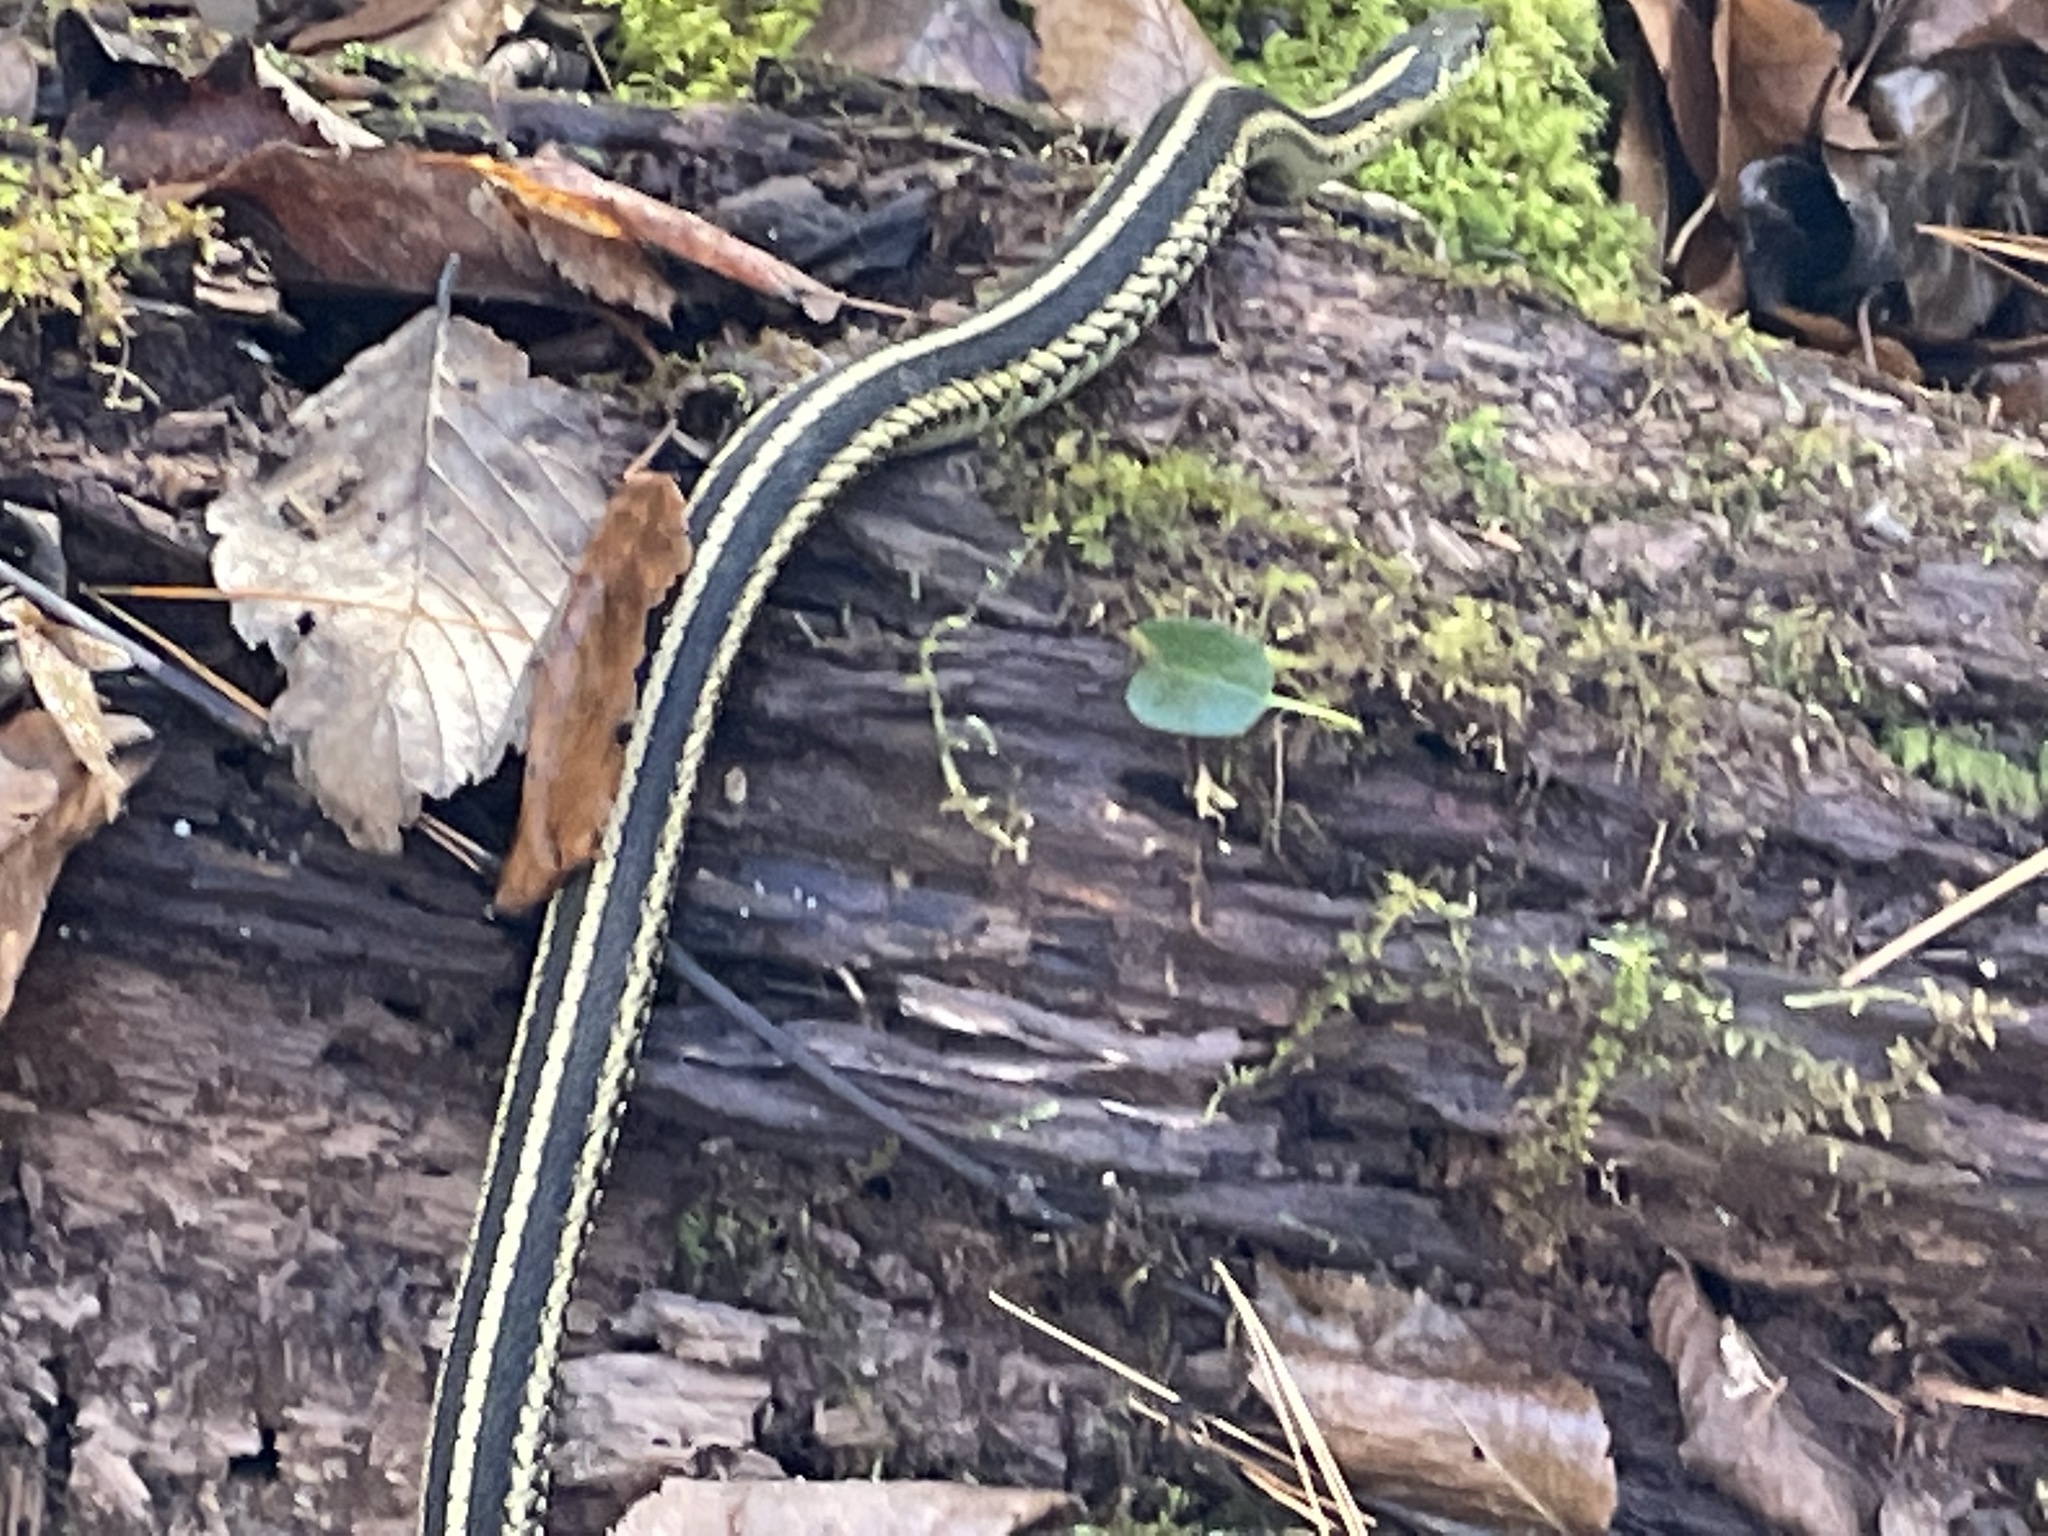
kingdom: Animalia
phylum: Chordata
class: Squamata
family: Colubridae
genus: Thamnophis
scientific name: Thamnophis sirtalis
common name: Common garter snake
